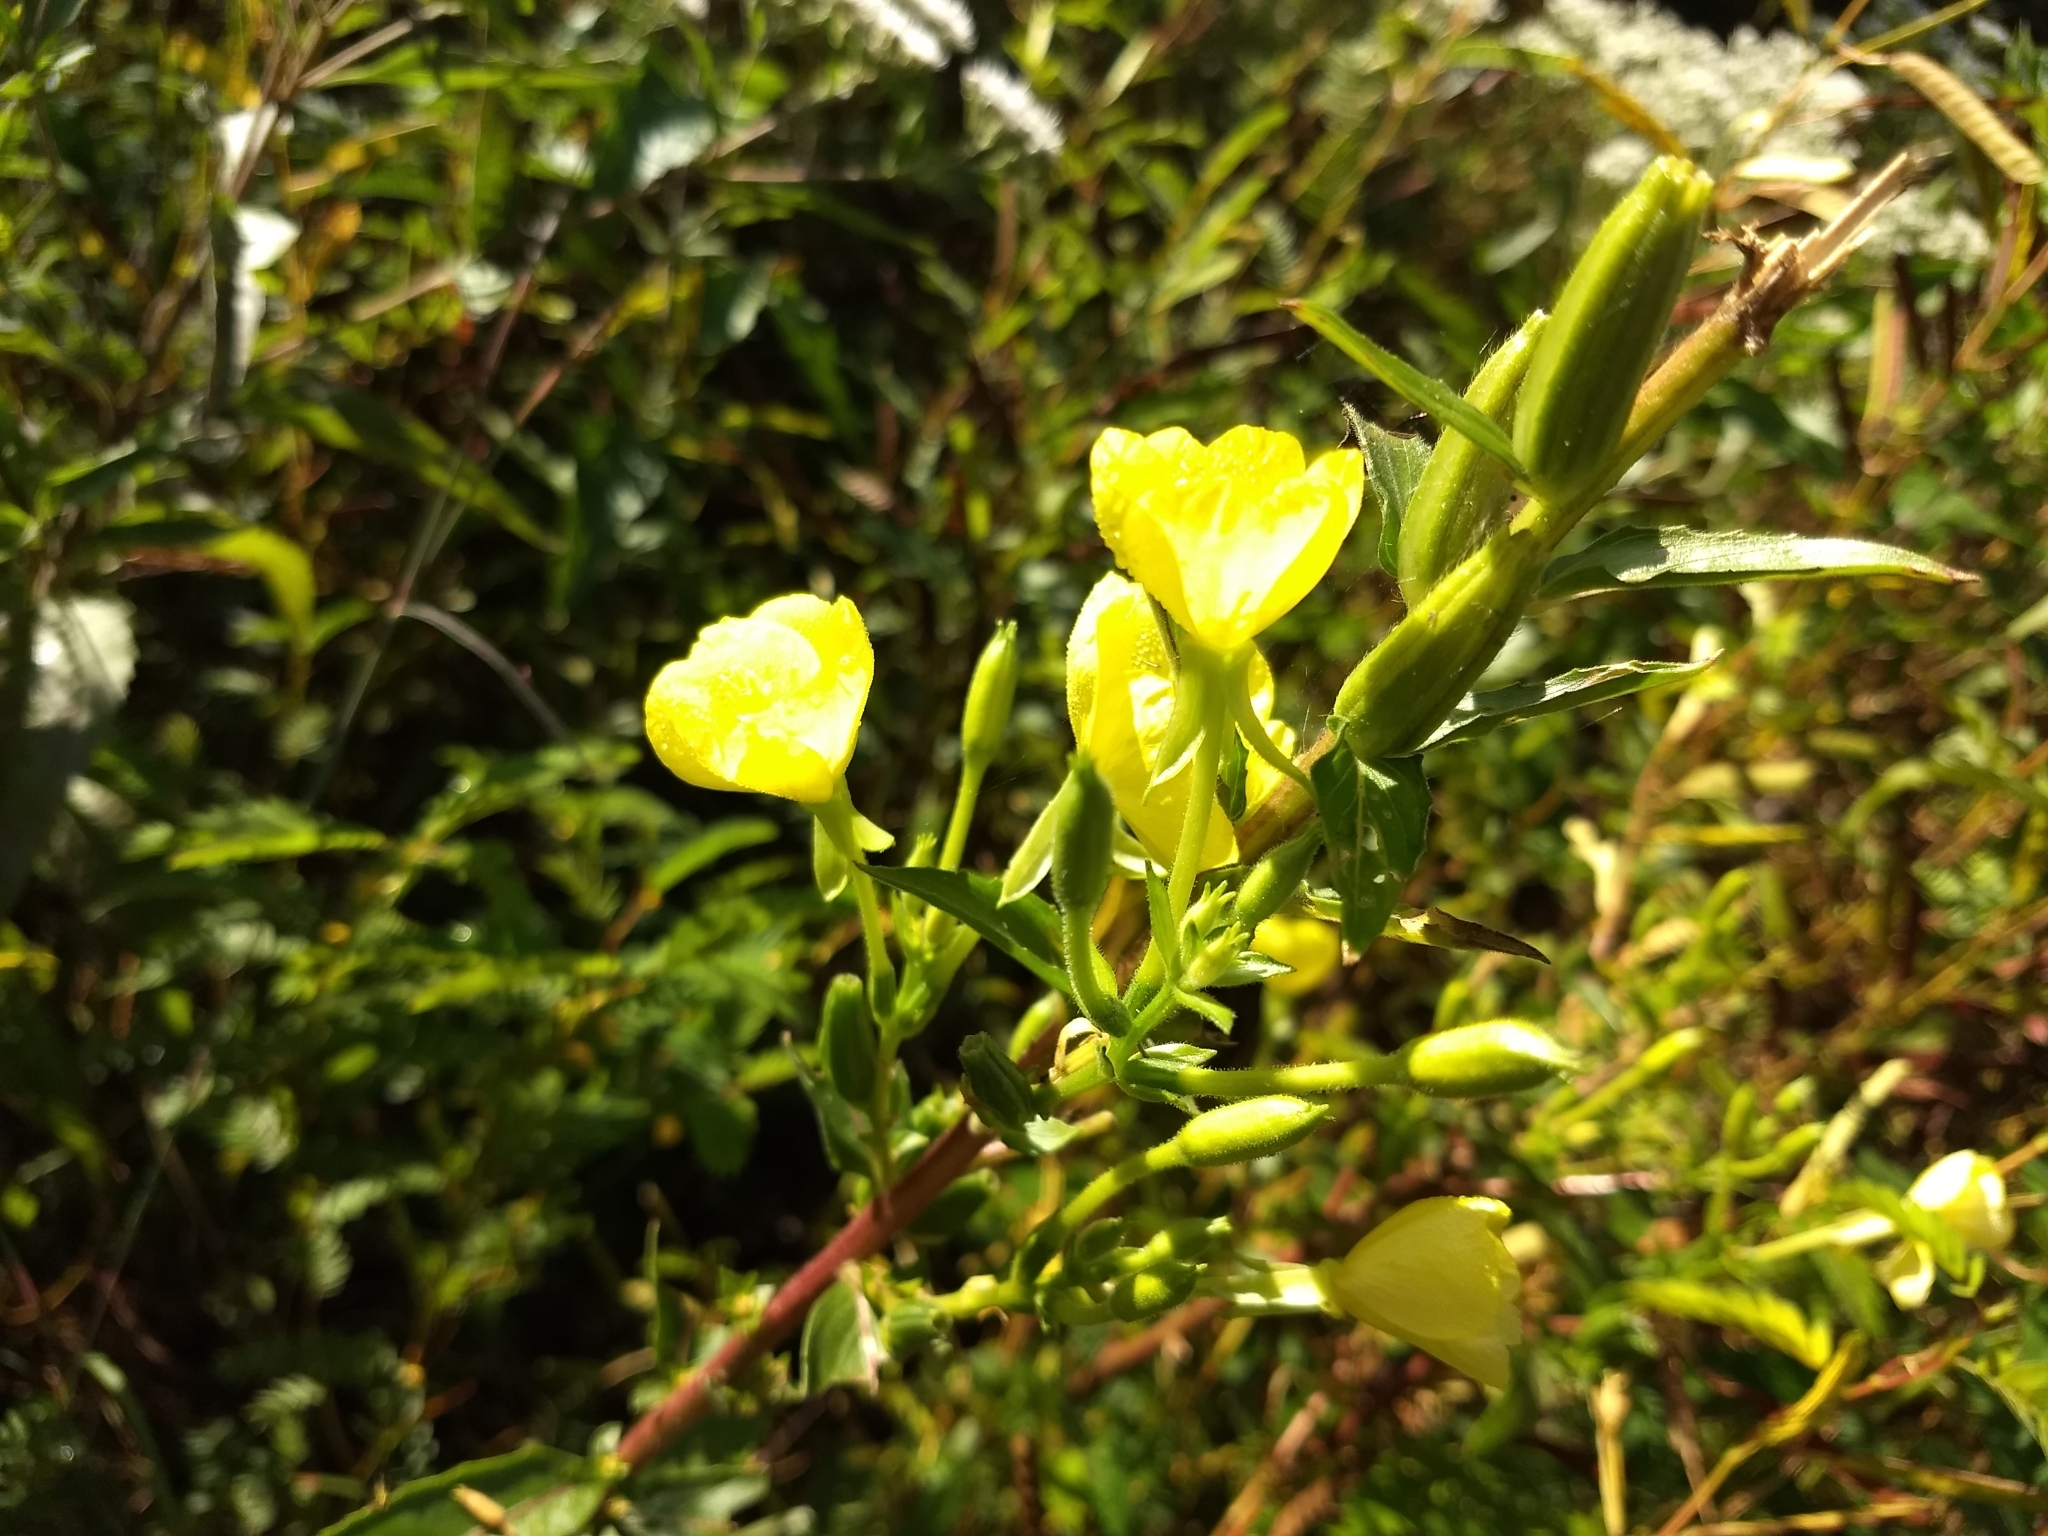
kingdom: Plantae
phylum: Tracheophyta
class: Magnoliopsida
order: Myrtales
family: Onagraceae
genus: Oenothera
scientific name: Oenothera biennis
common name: Common evening-primrose
